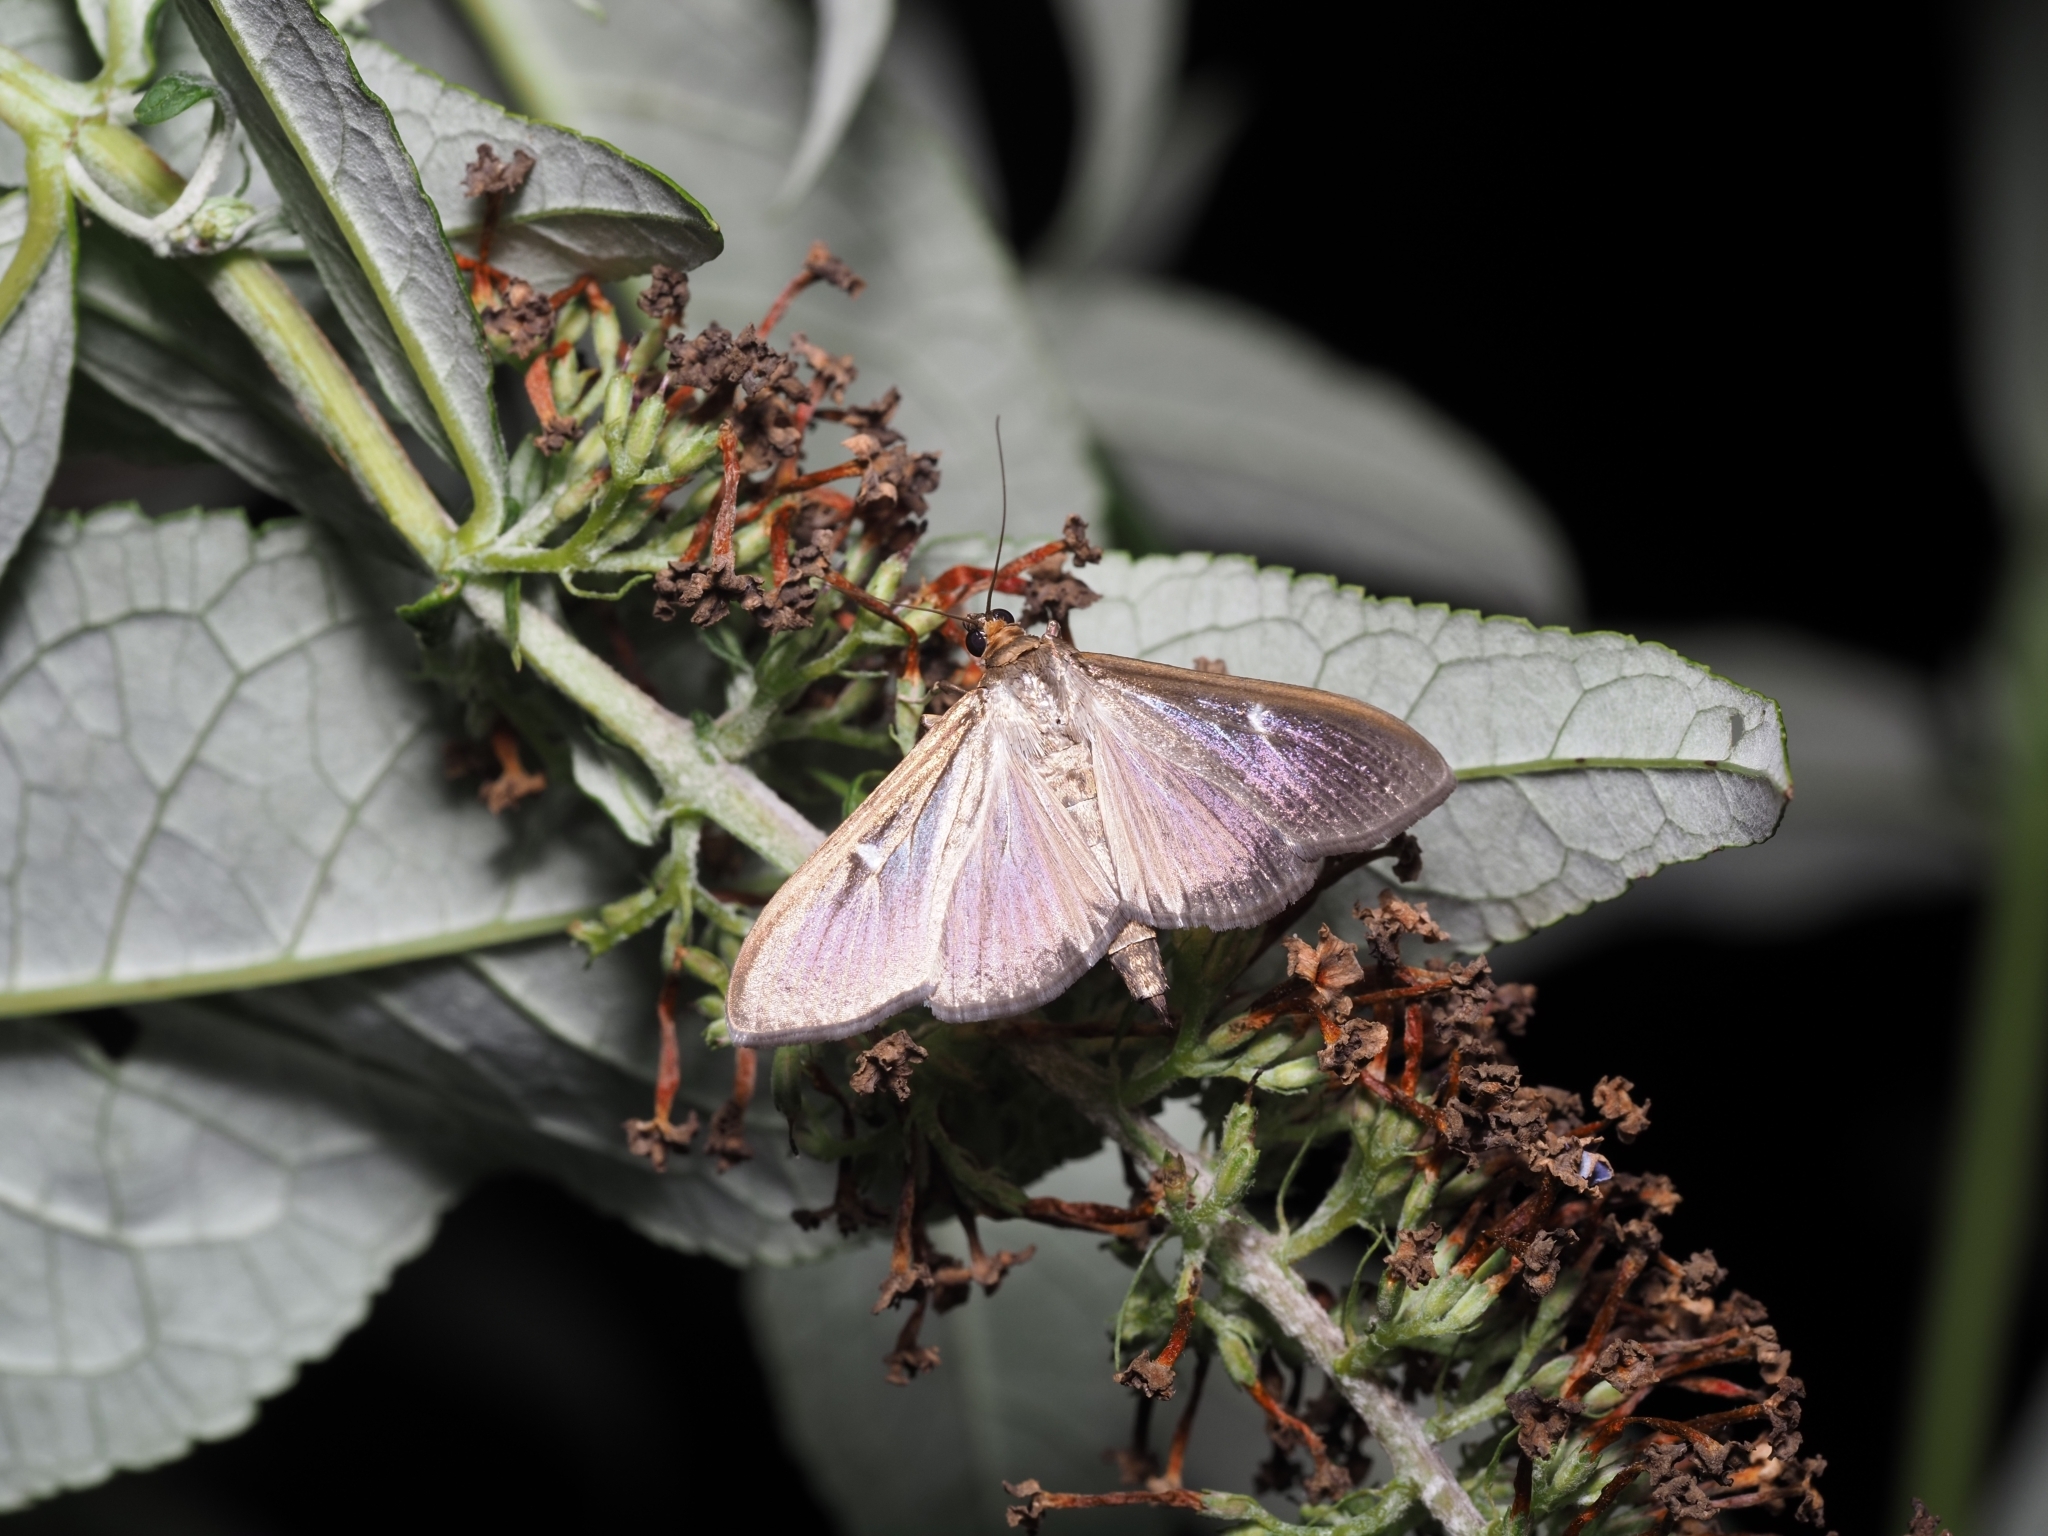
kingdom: Animalia
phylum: Arthropoda
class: Insecta
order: Lepidoptera
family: Crambidae
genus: Cydalima
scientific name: Cydalima perspectalis
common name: Box tree moth
